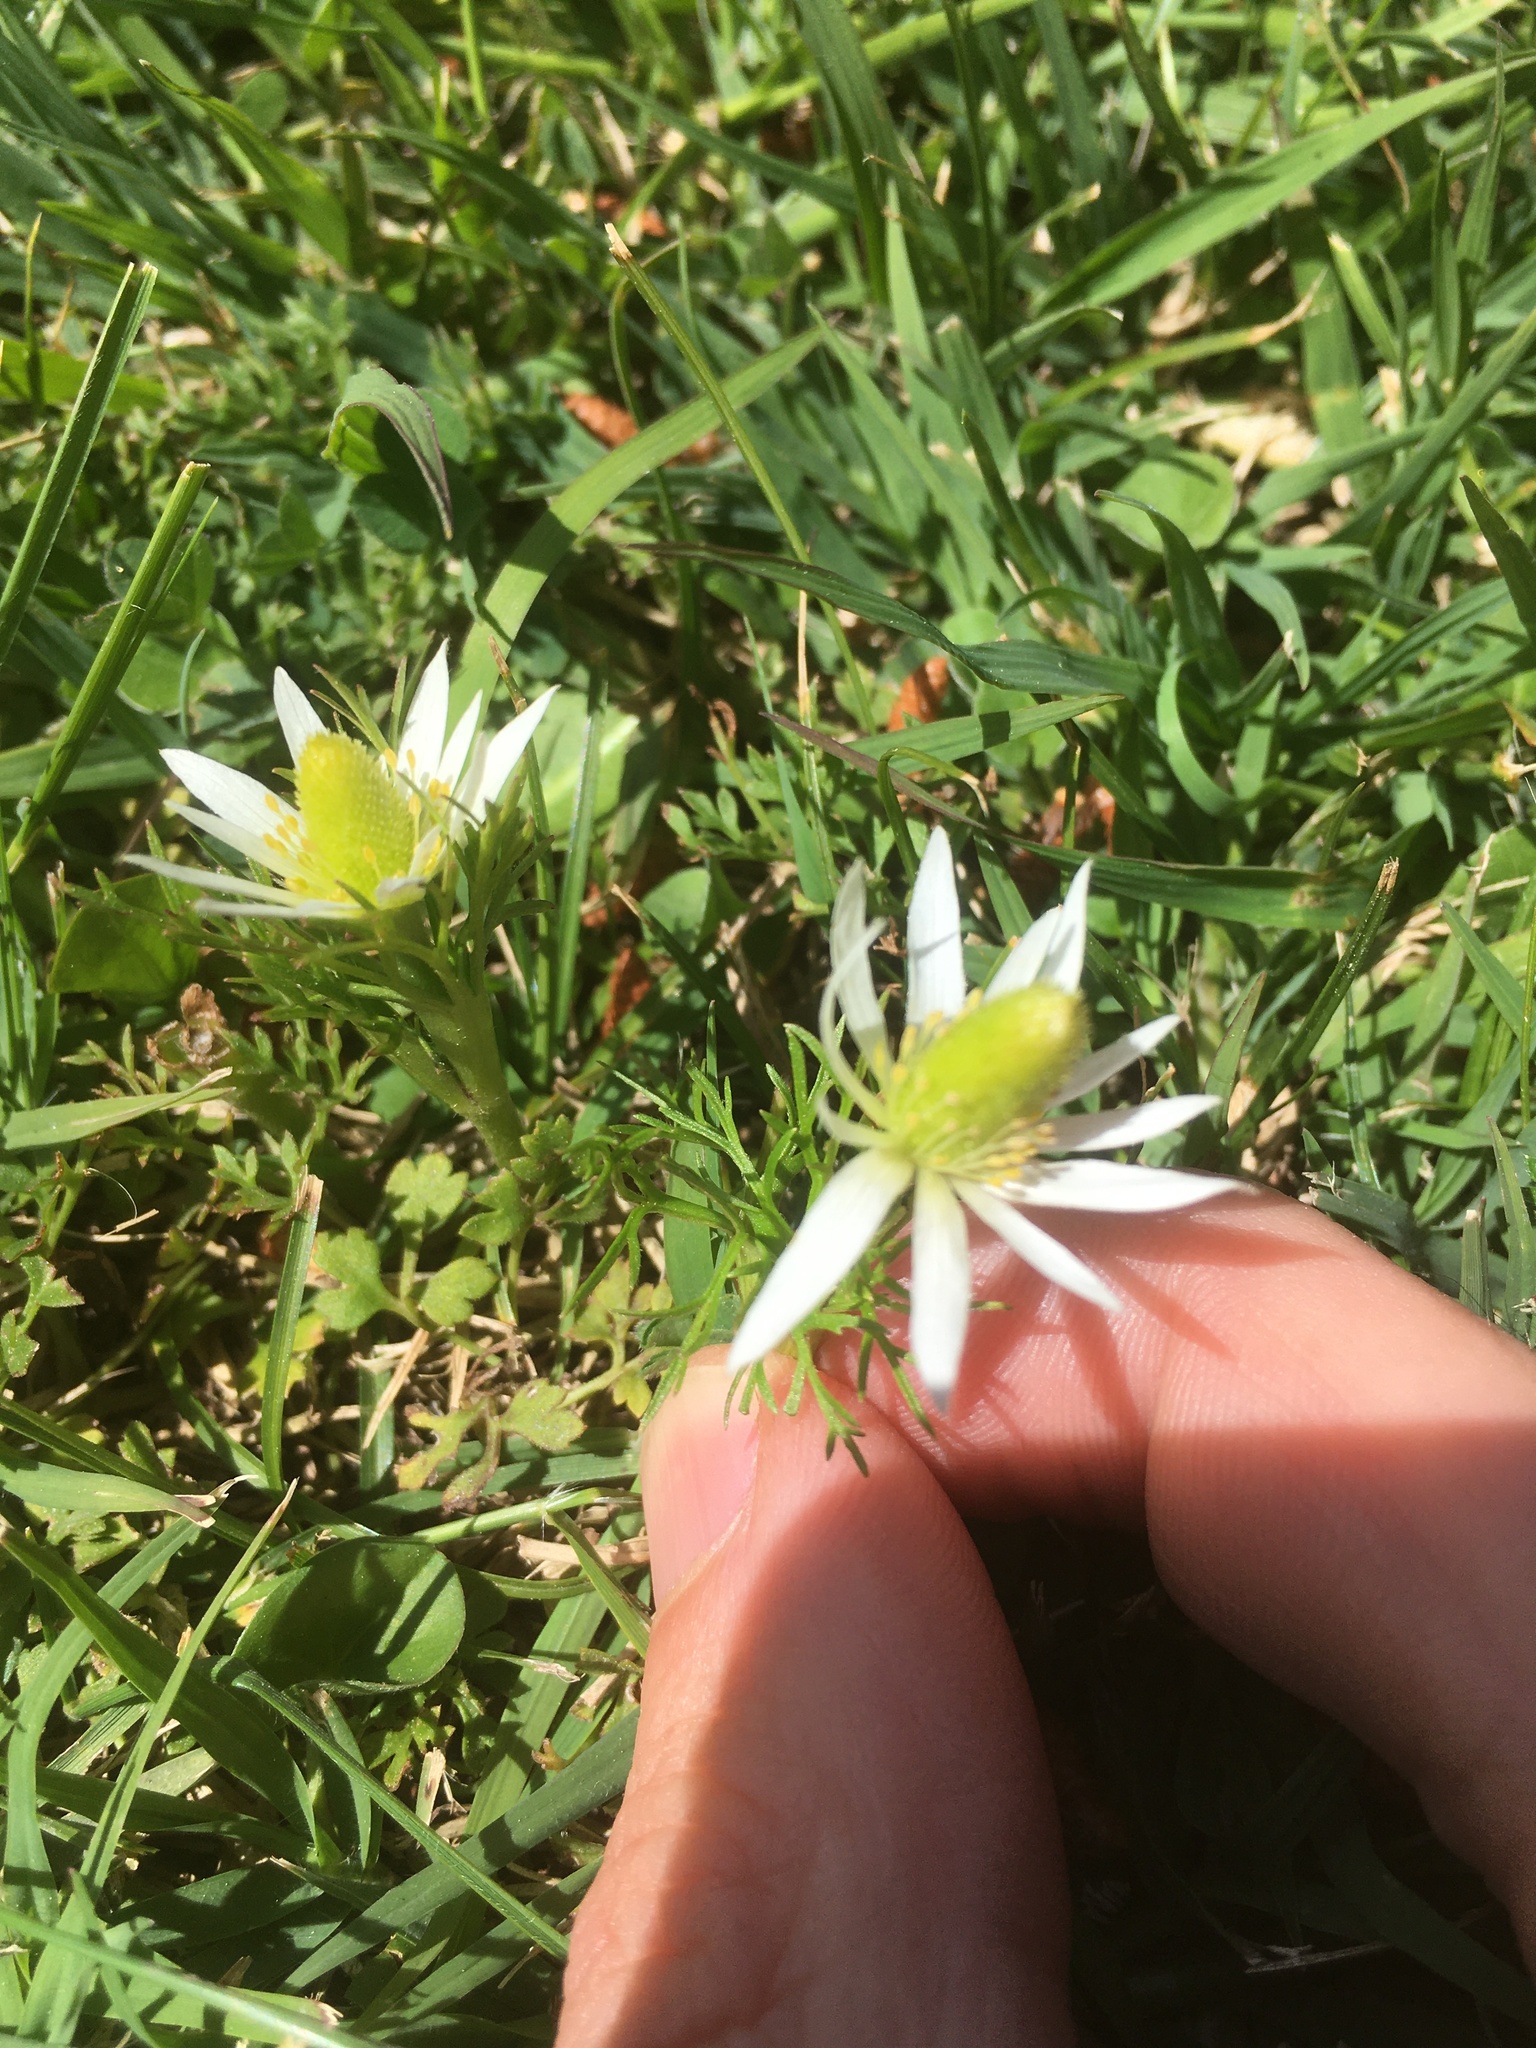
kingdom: Plantae
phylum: Tracheophyta
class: Magnoliopsida
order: Ranunculales
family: Ranunculaceae
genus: Anemone
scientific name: Anemone decapetala
